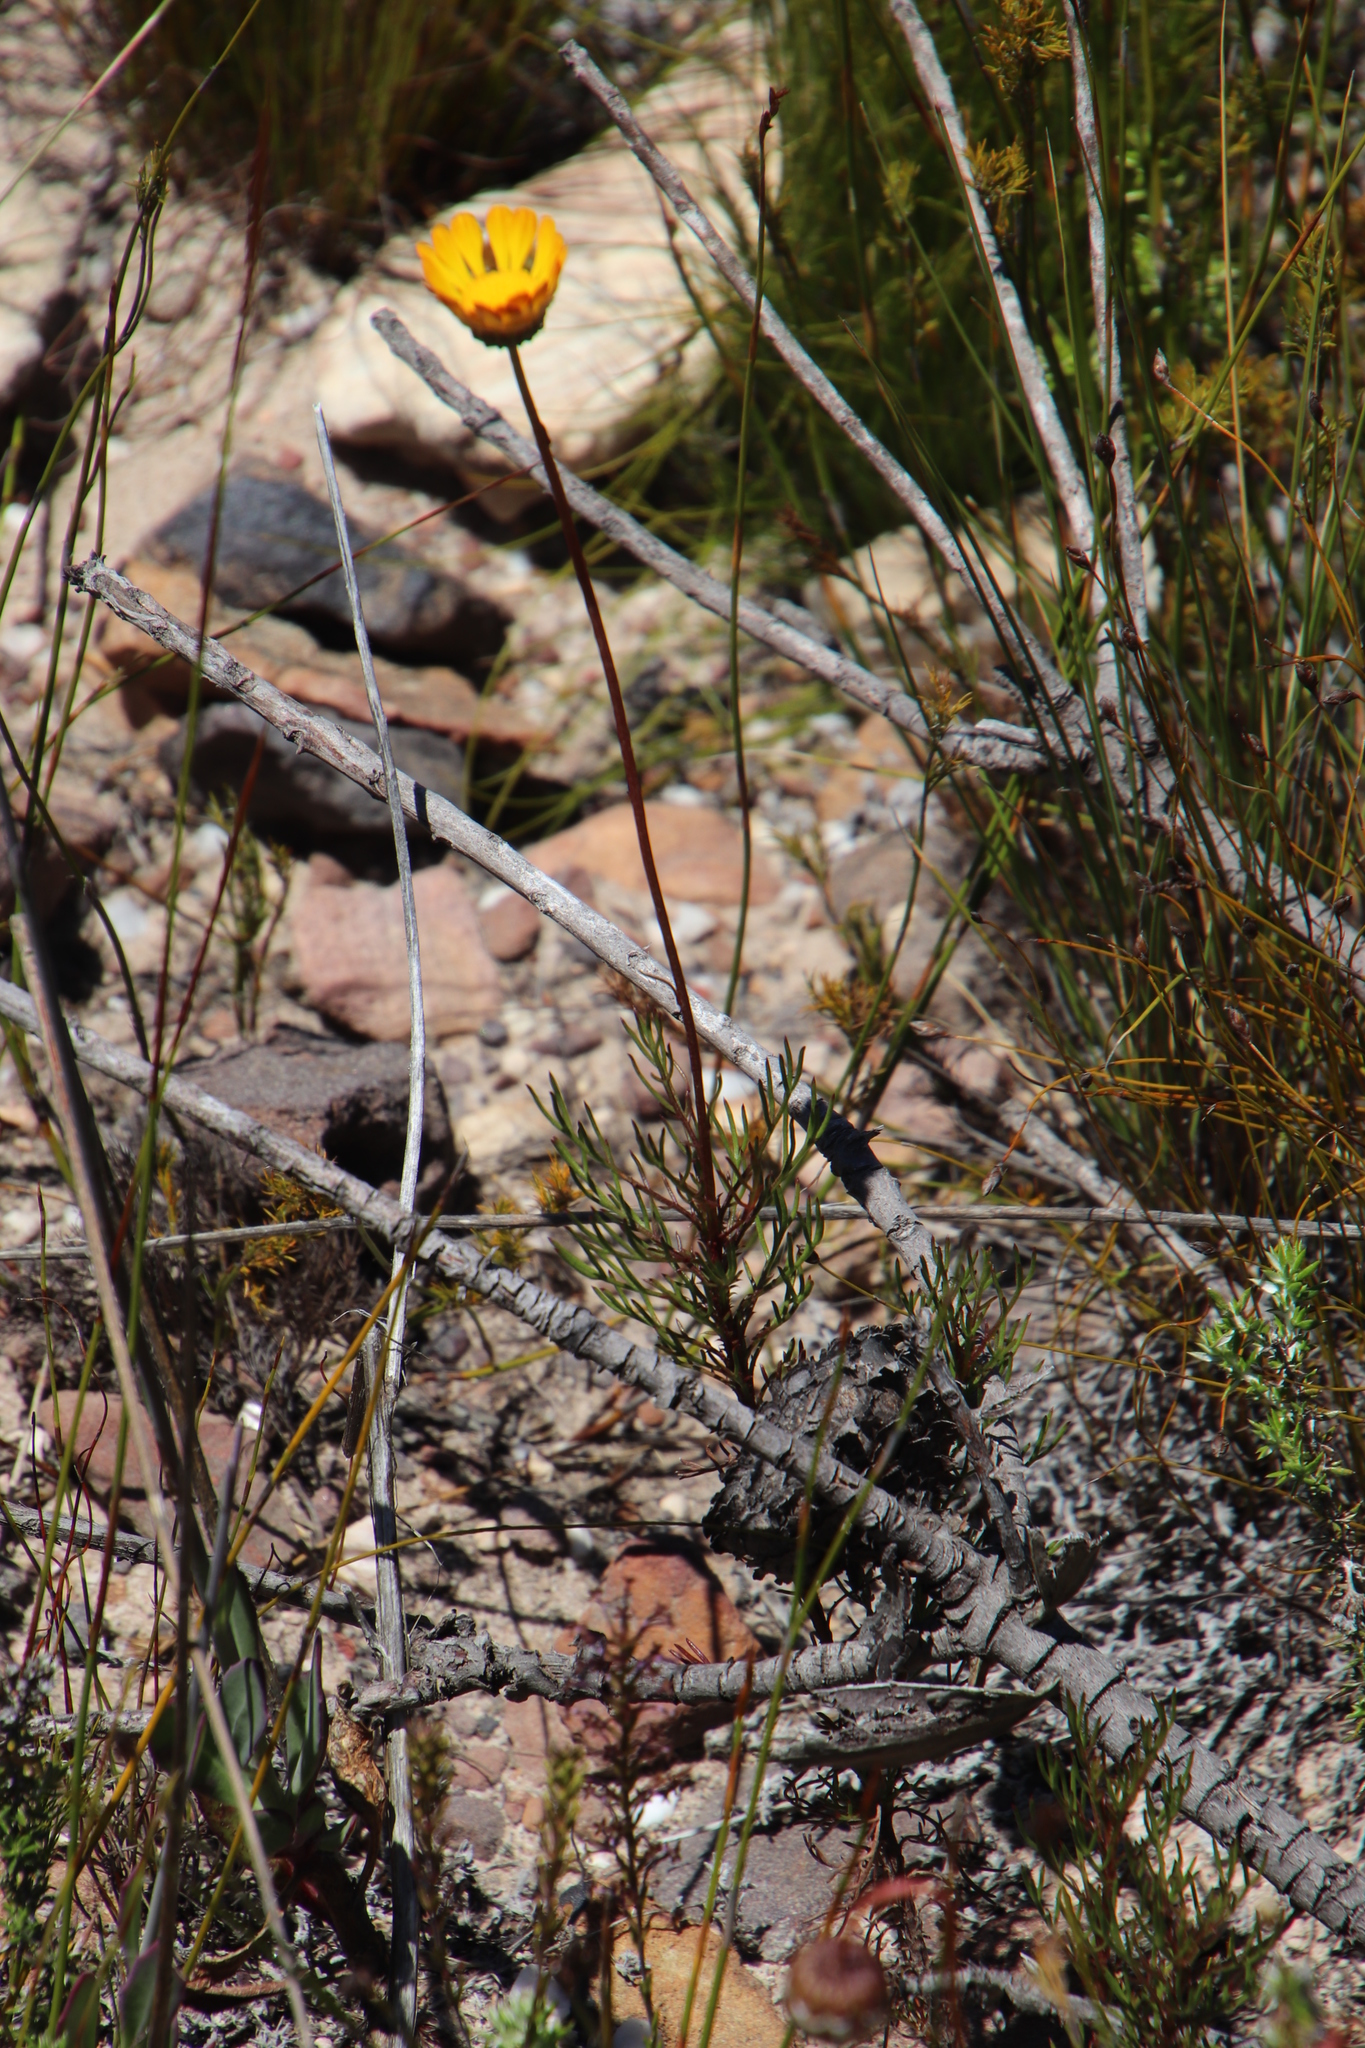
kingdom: Plantae
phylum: Tracheophyta
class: Magnoliopsida
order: Asterales
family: Asteraceae
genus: Ursinia
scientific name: Ursinia oreogena
